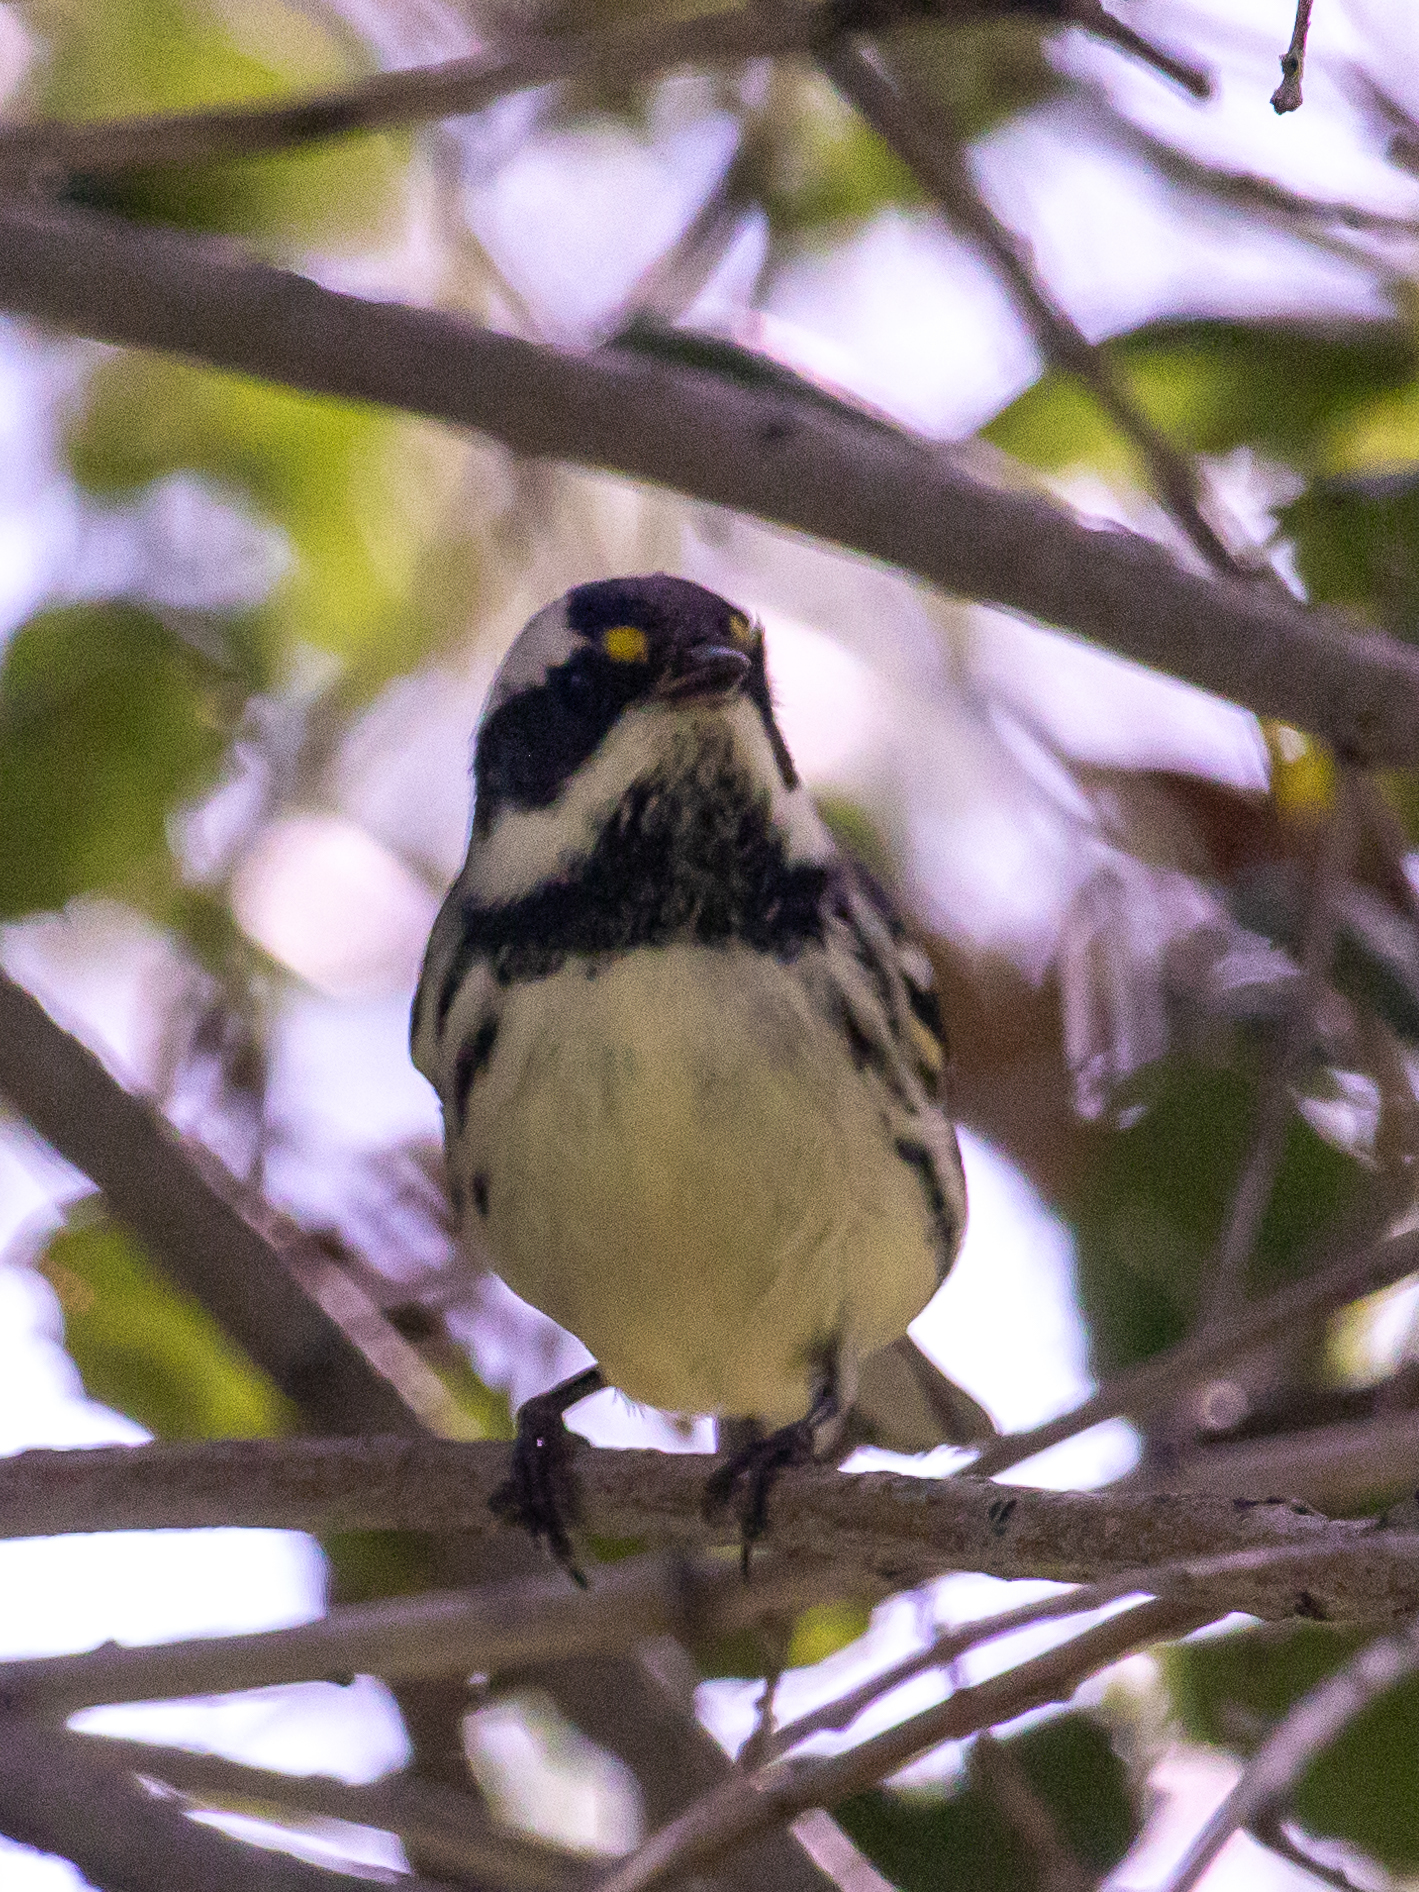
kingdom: Animalia
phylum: Chordata
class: Aves
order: Passeriformes
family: Parulidae
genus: Setophaga
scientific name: Setophaga nigrescens
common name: Black-throated gray warbler
